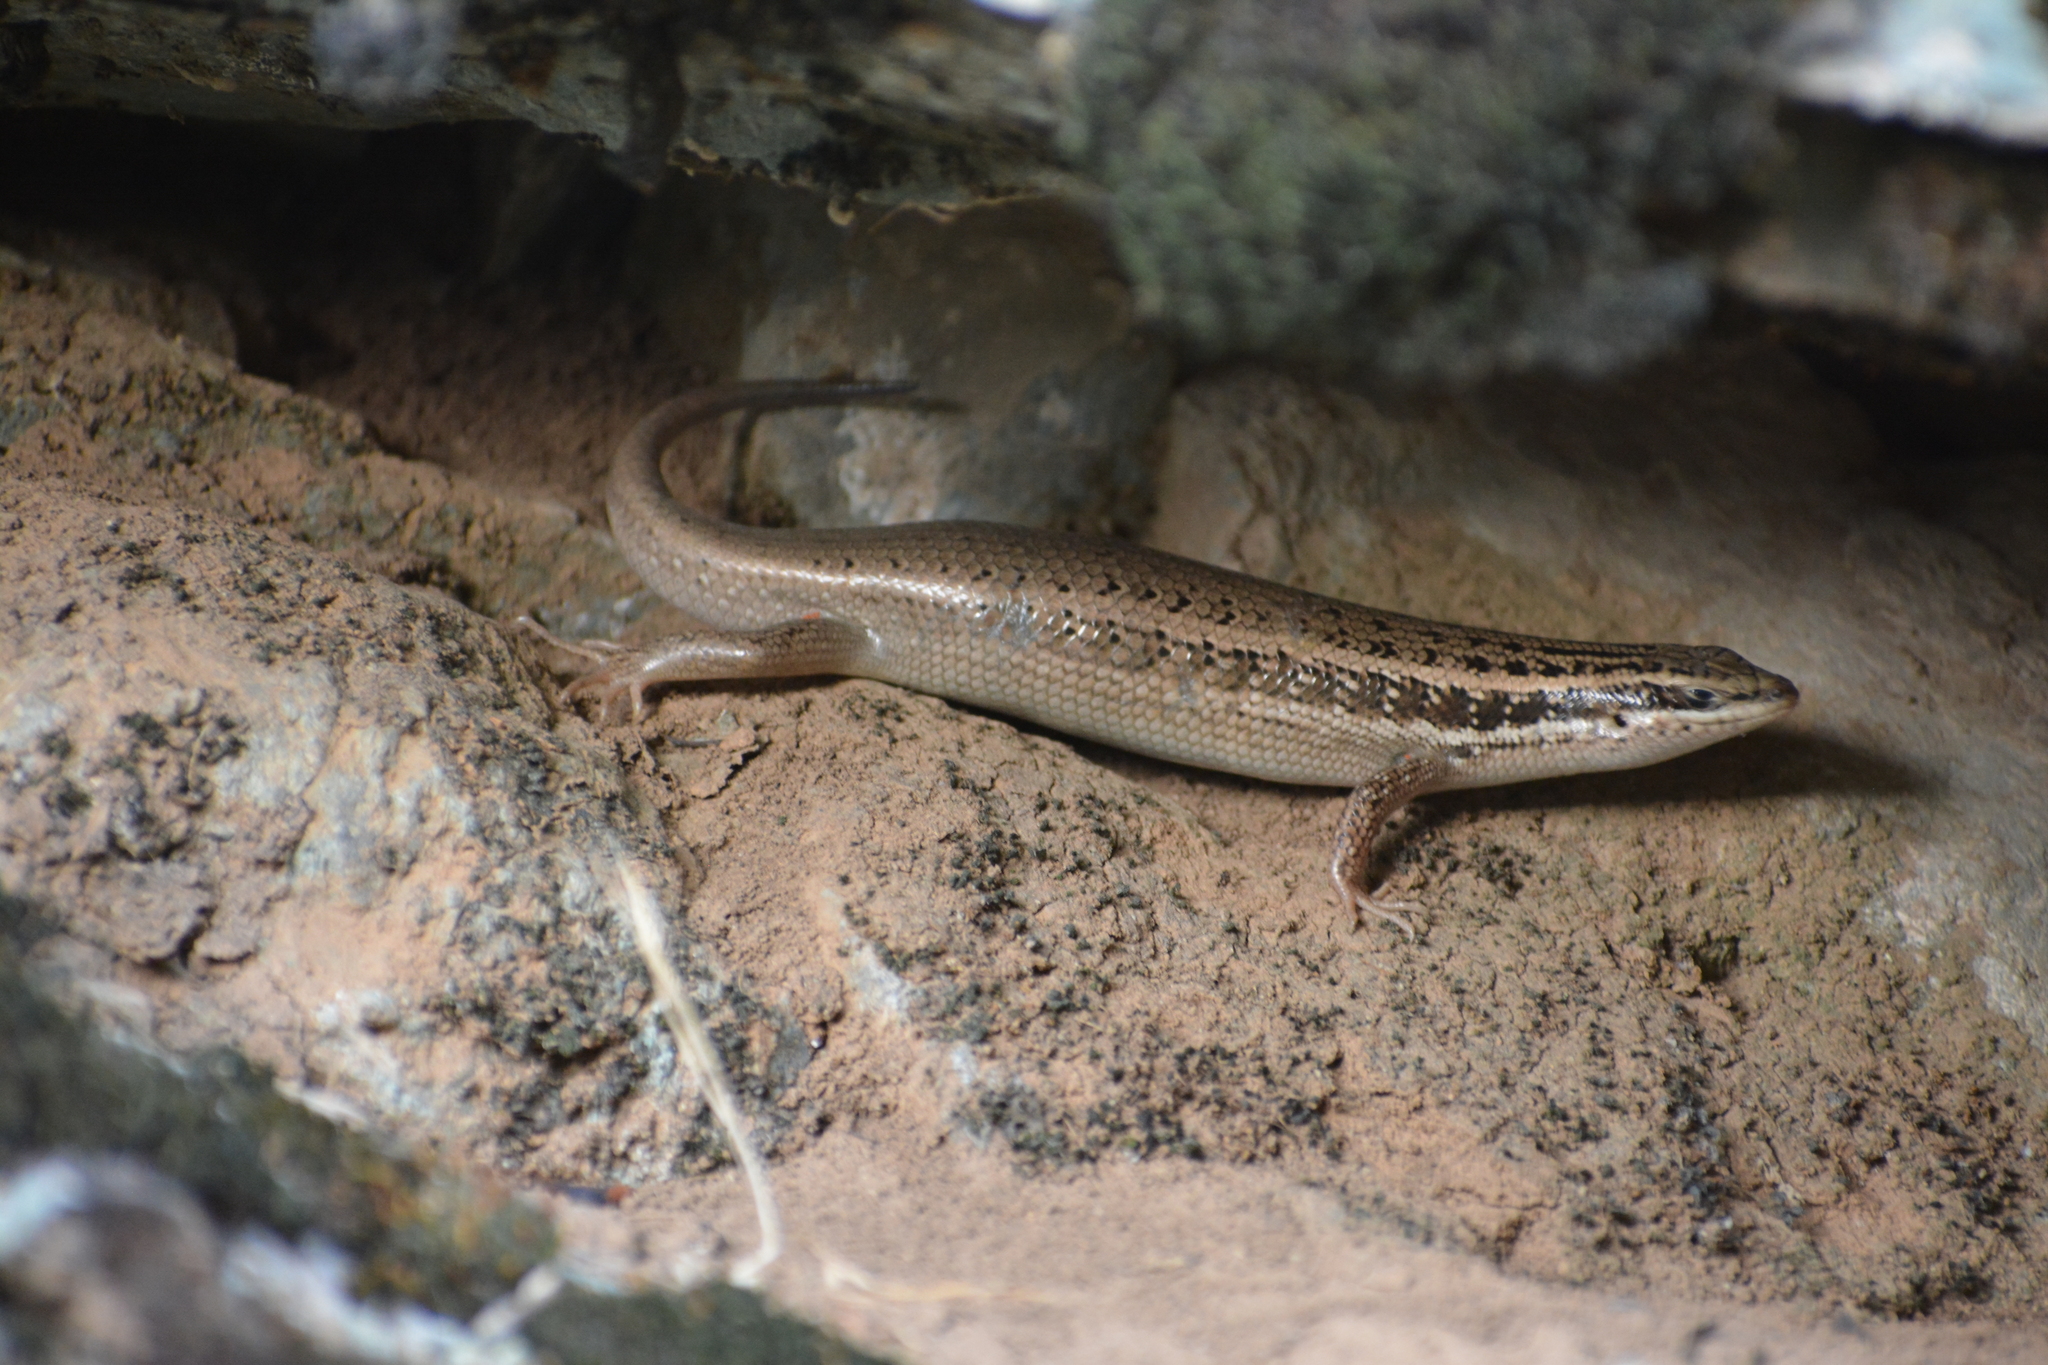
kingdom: Animalia
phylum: Chordata
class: Squamata
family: Scincidae
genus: Heremites
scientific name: Heremites auratus
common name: Golden grass mabuya
